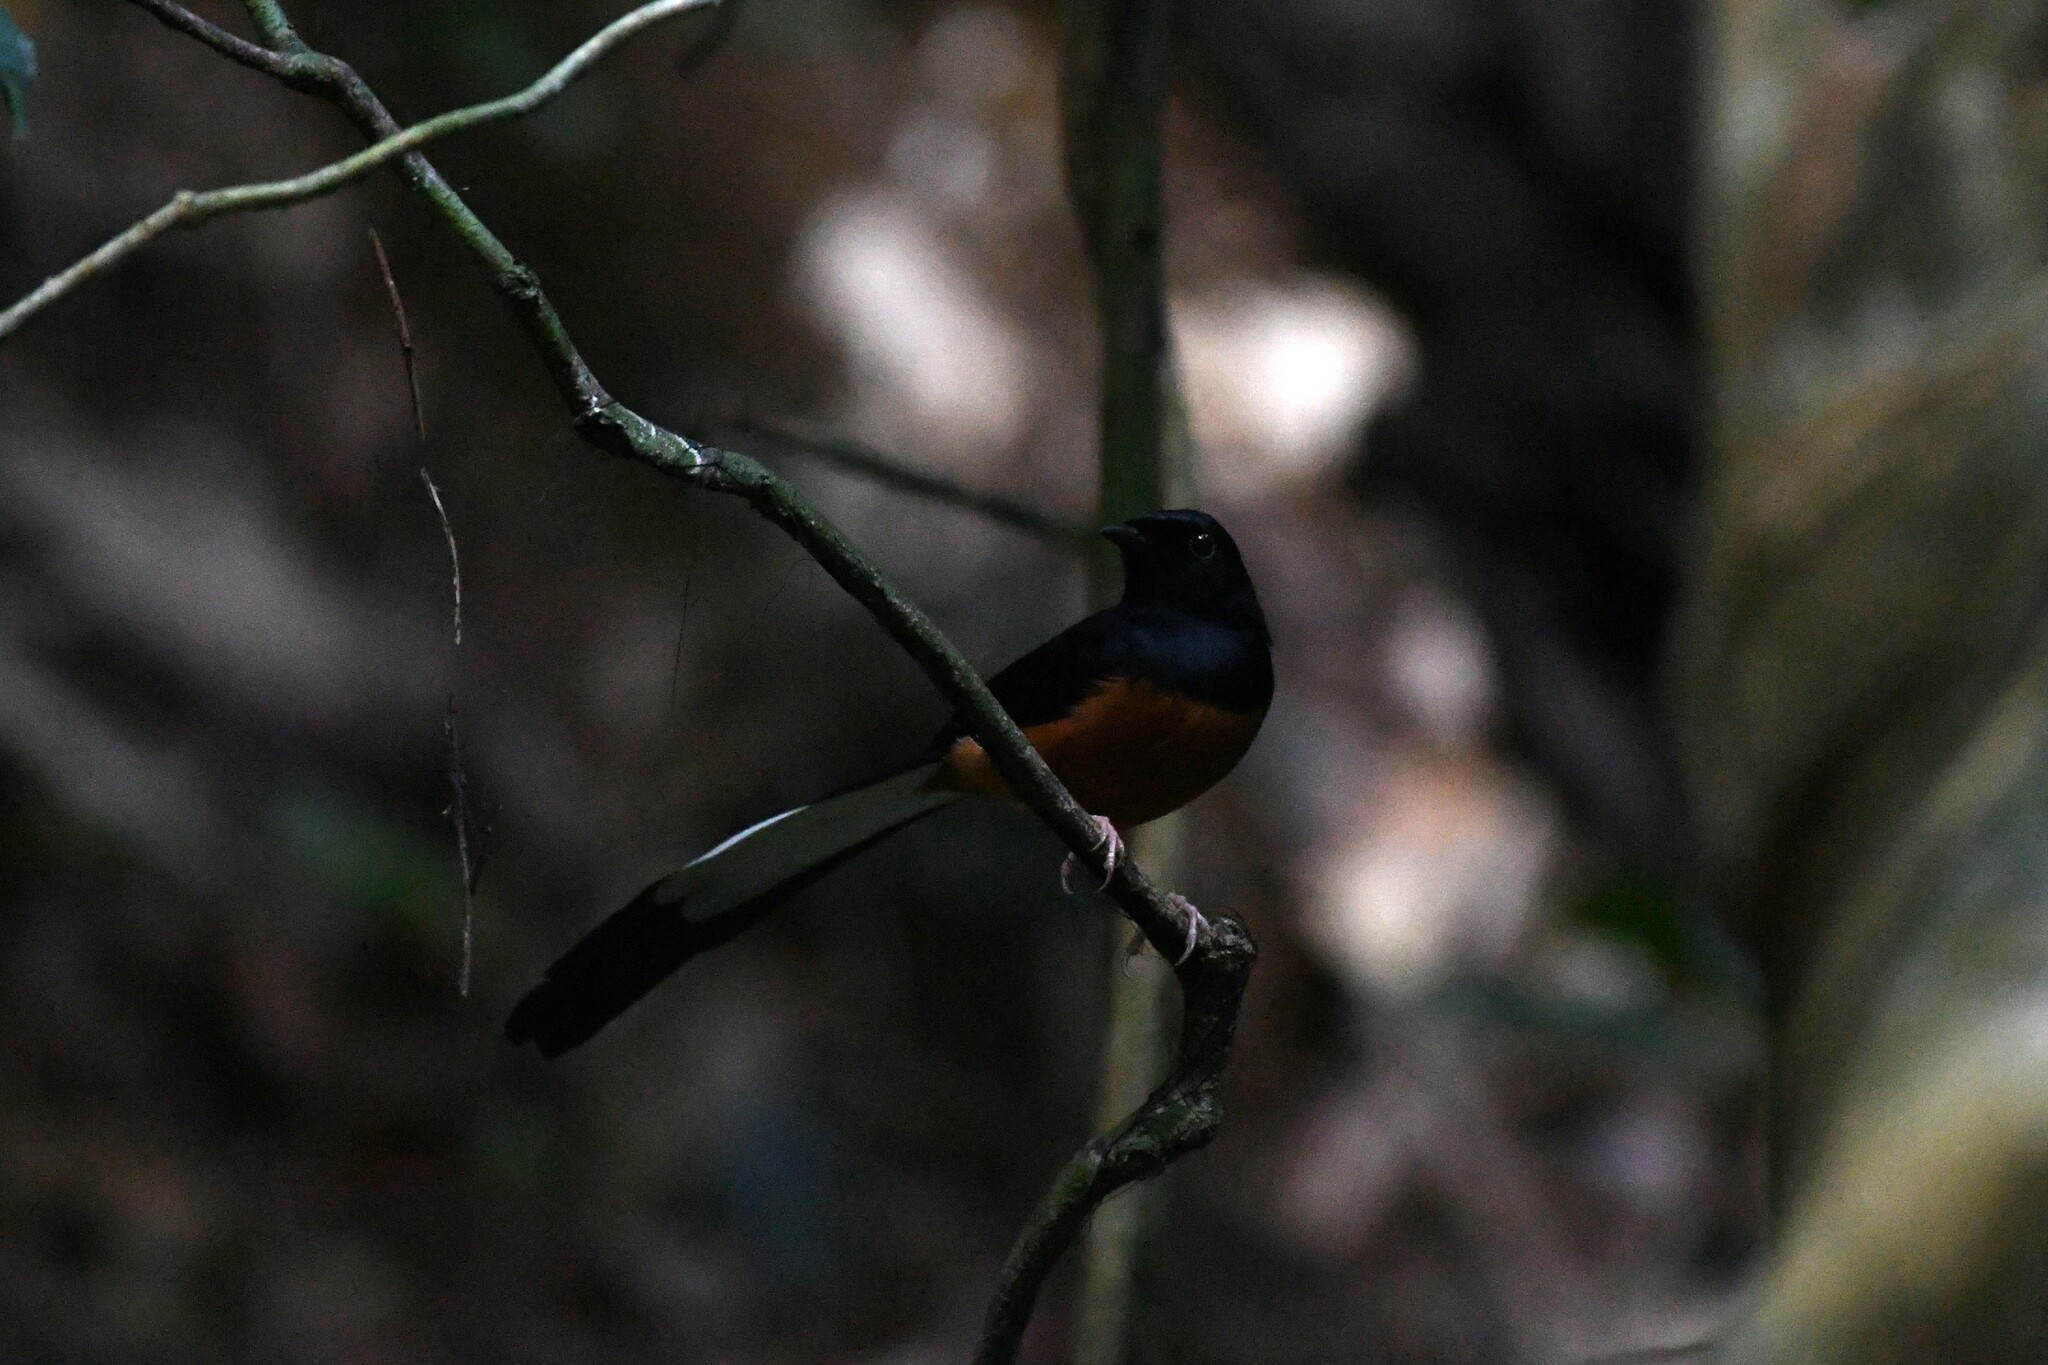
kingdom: Animalia
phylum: Chordata
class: Aves
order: Passeriformes
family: Muscicapidae
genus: Copsychus
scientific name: Copsychus malabaricus
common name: White-rumped shama
